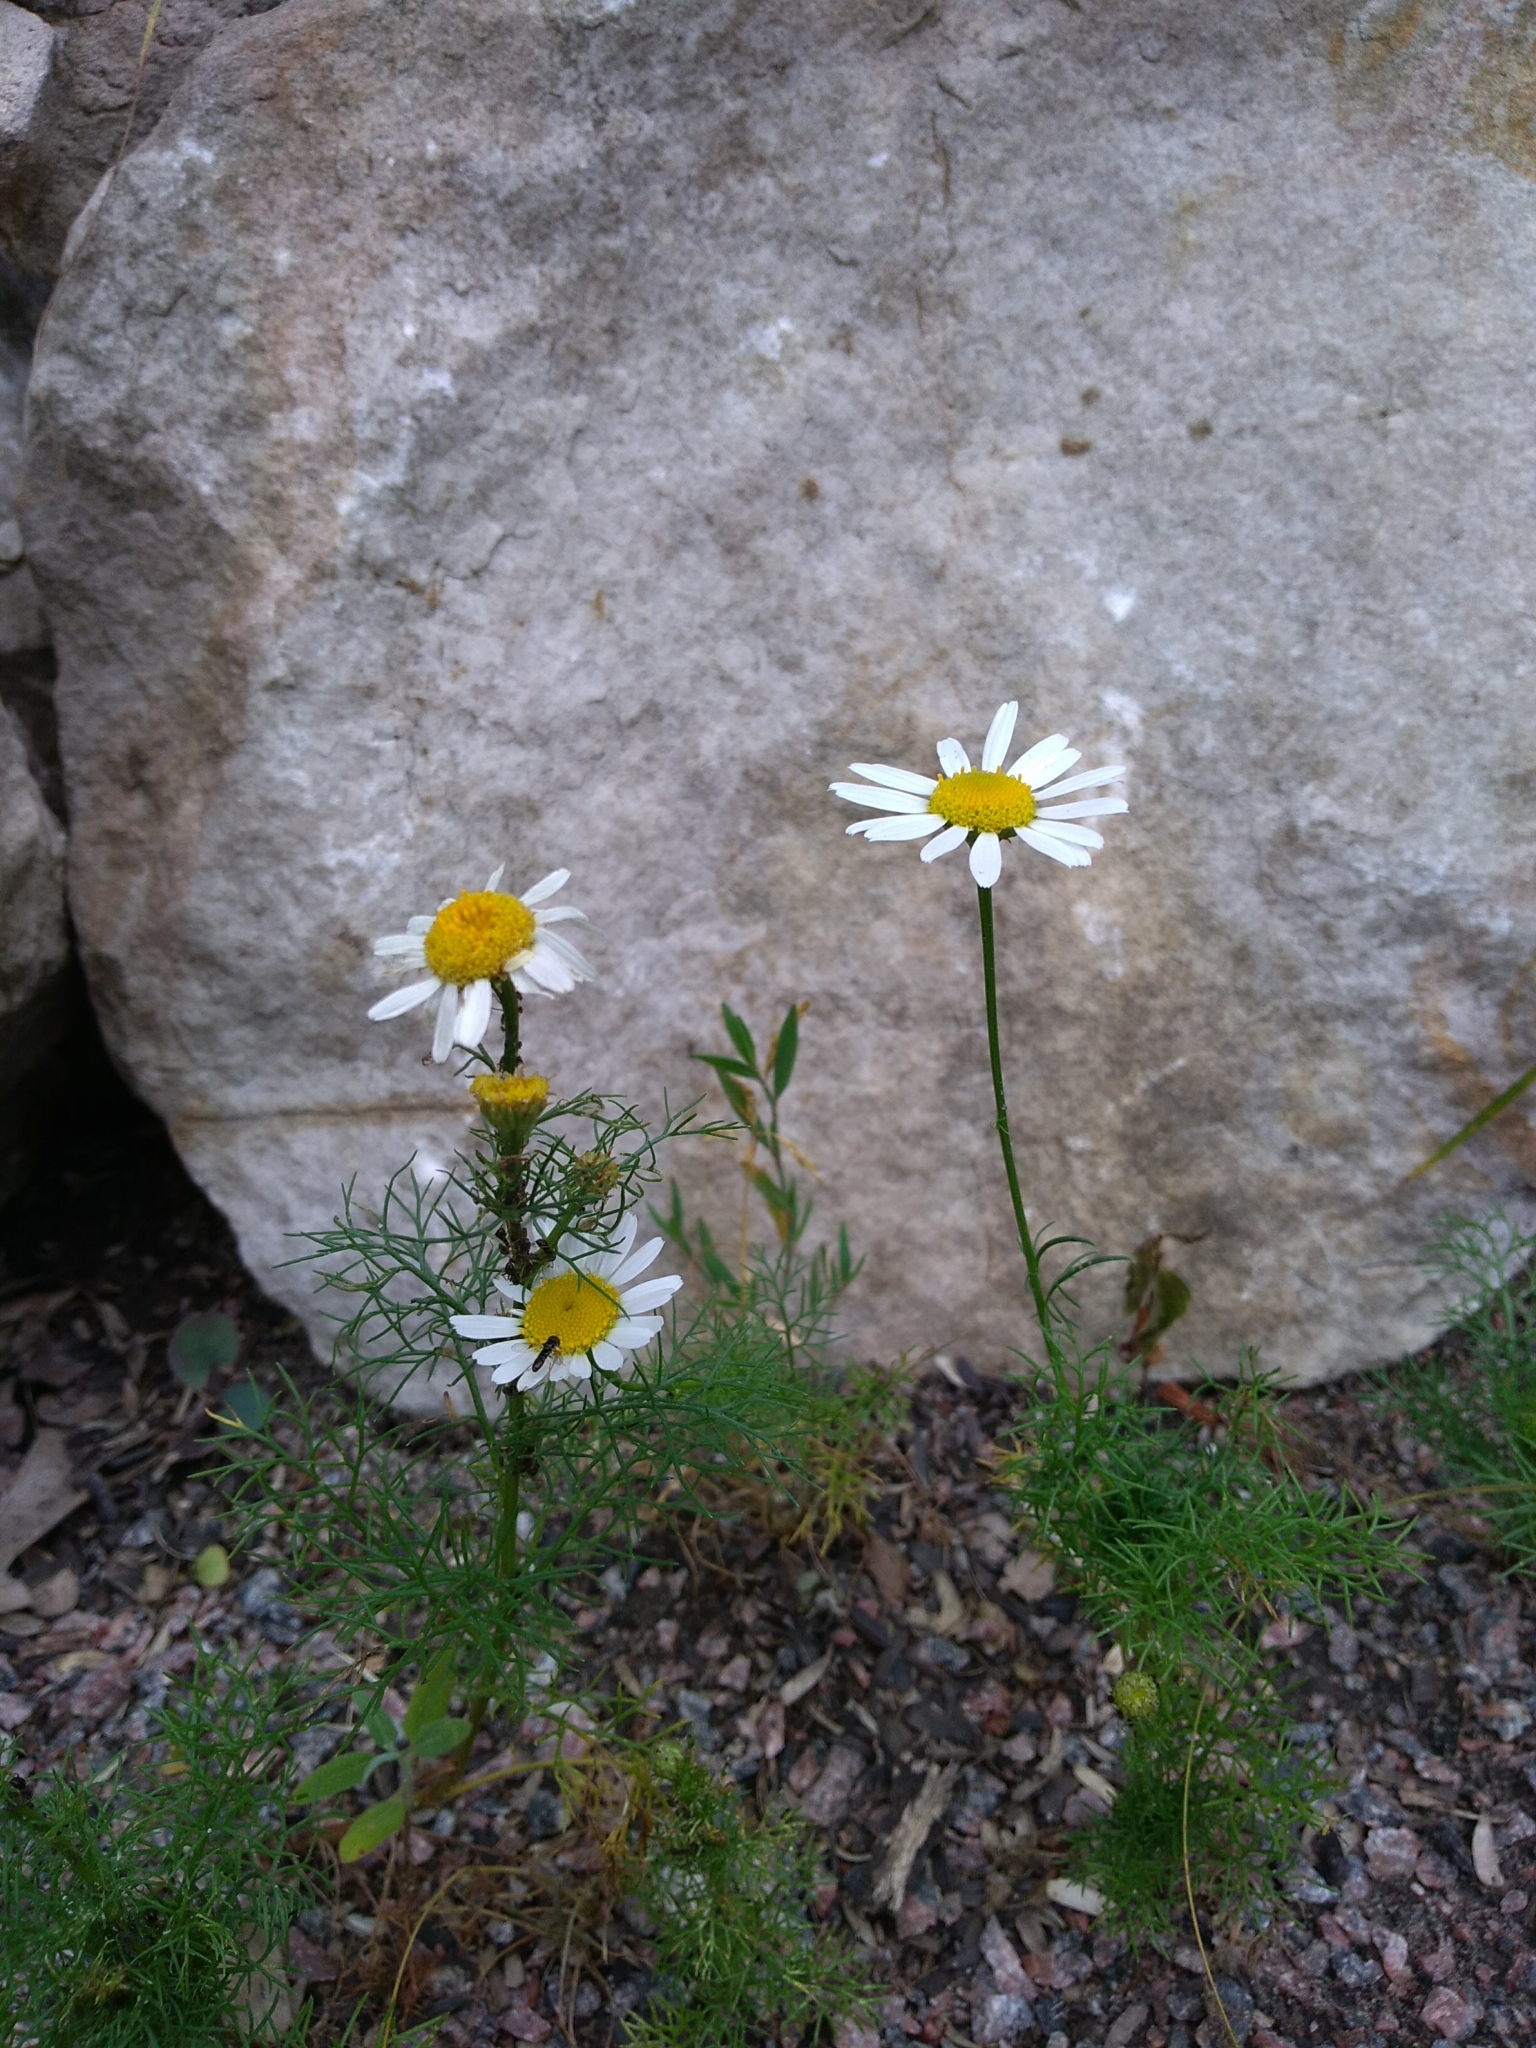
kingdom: Plantae
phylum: Tracheophyta
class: Magnoliopsida
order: Asterales
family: Asteraceae
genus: Tripleurospermum
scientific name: Tripleurospermum inodorum
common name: Scentless mayweed
